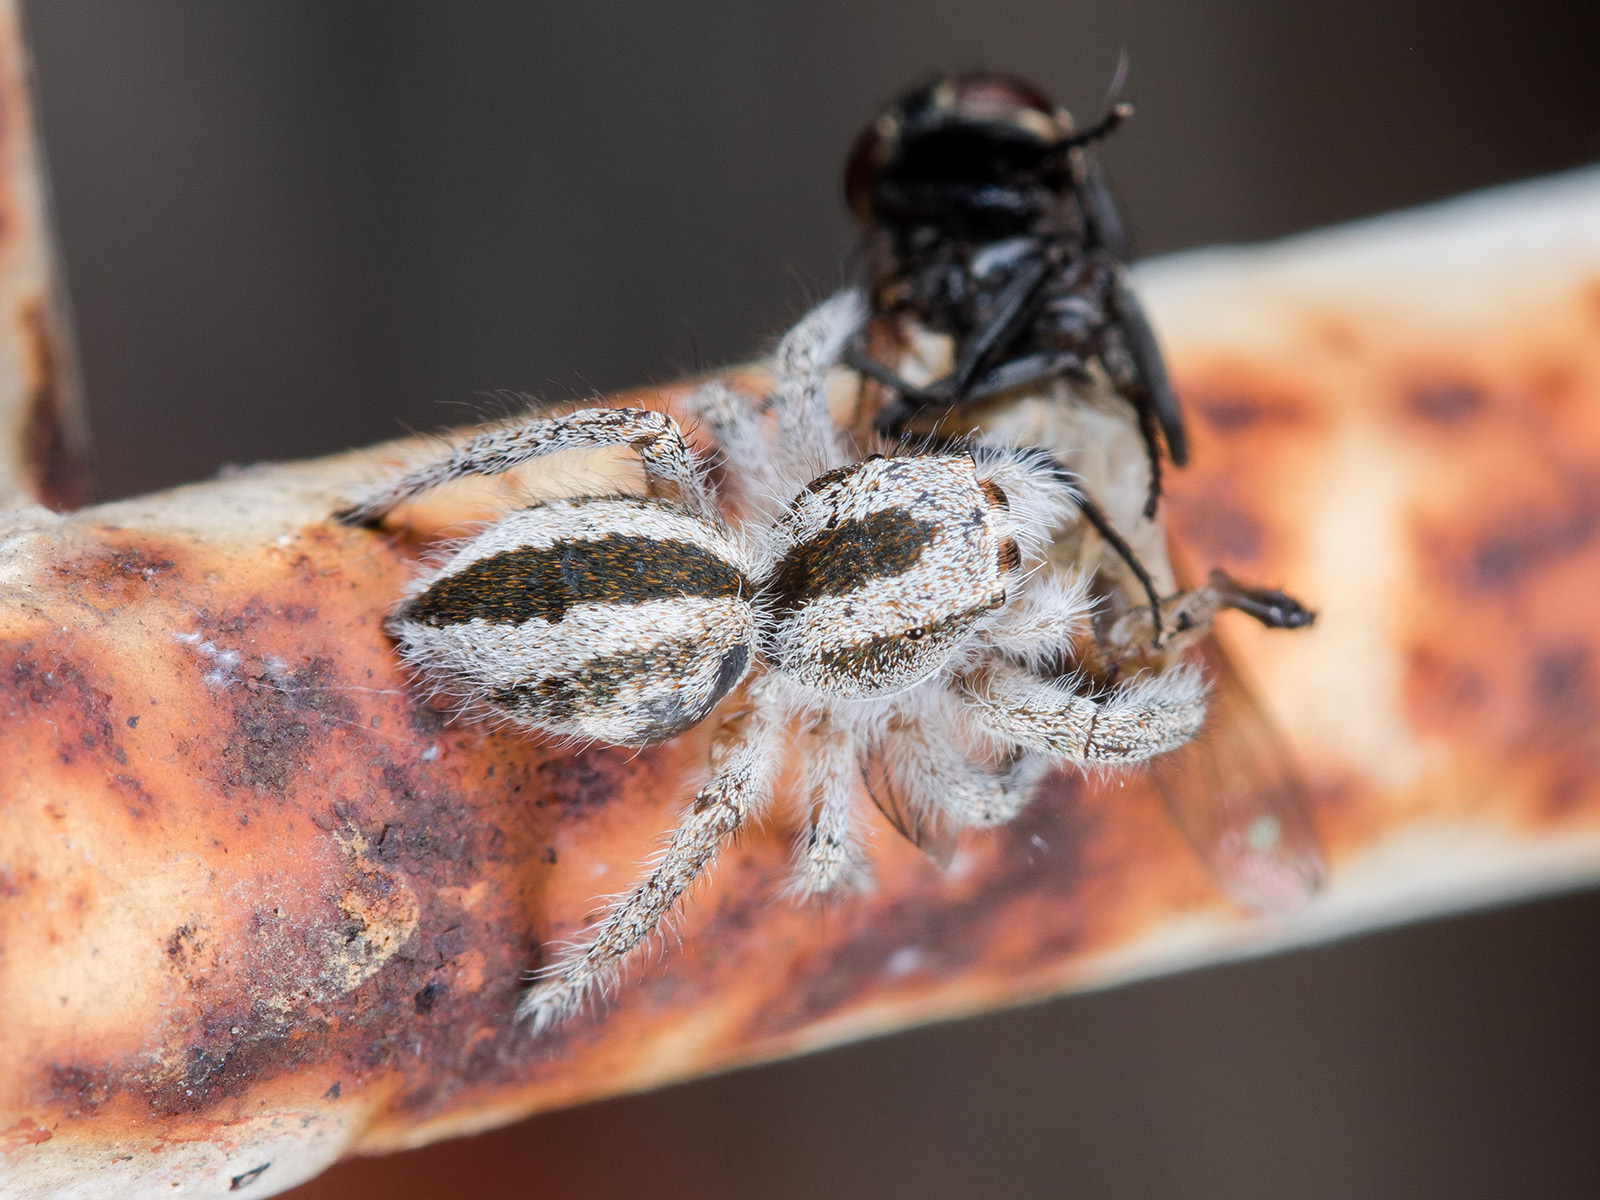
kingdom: Animalia
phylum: Arthropoda
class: Arachnida
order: Araneae
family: Salticidae
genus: Pseudomogrus
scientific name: Pseudomogrus validus
